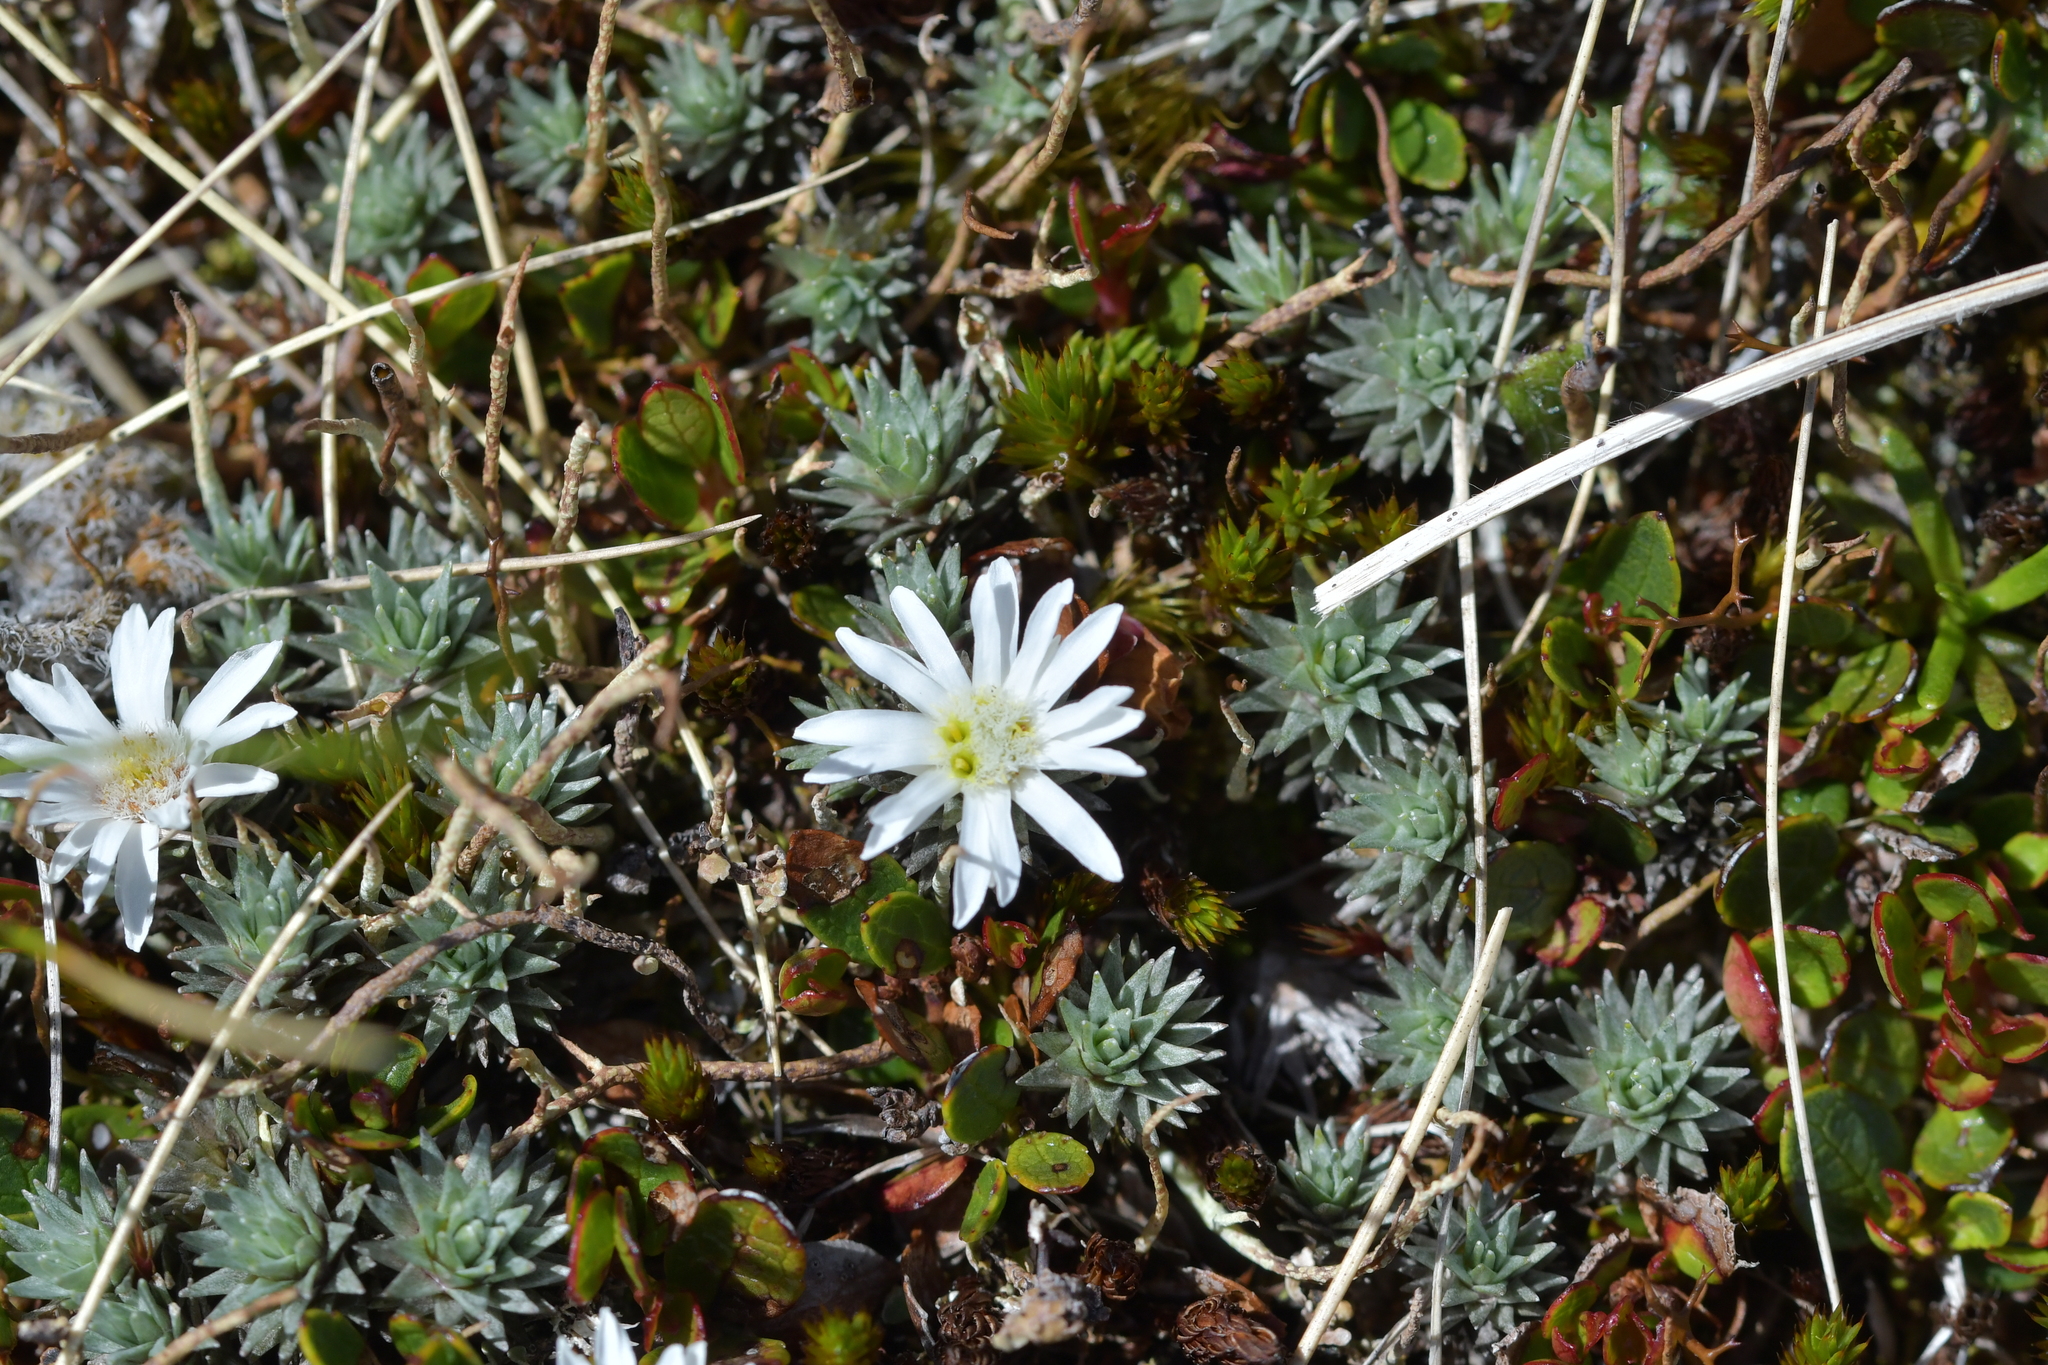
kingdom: Plantae
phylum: Tracheophyta
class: Magnoliopsida
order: Asterales
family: Asteraceae
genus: Raoulia
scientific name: Raoulia grandiflora
